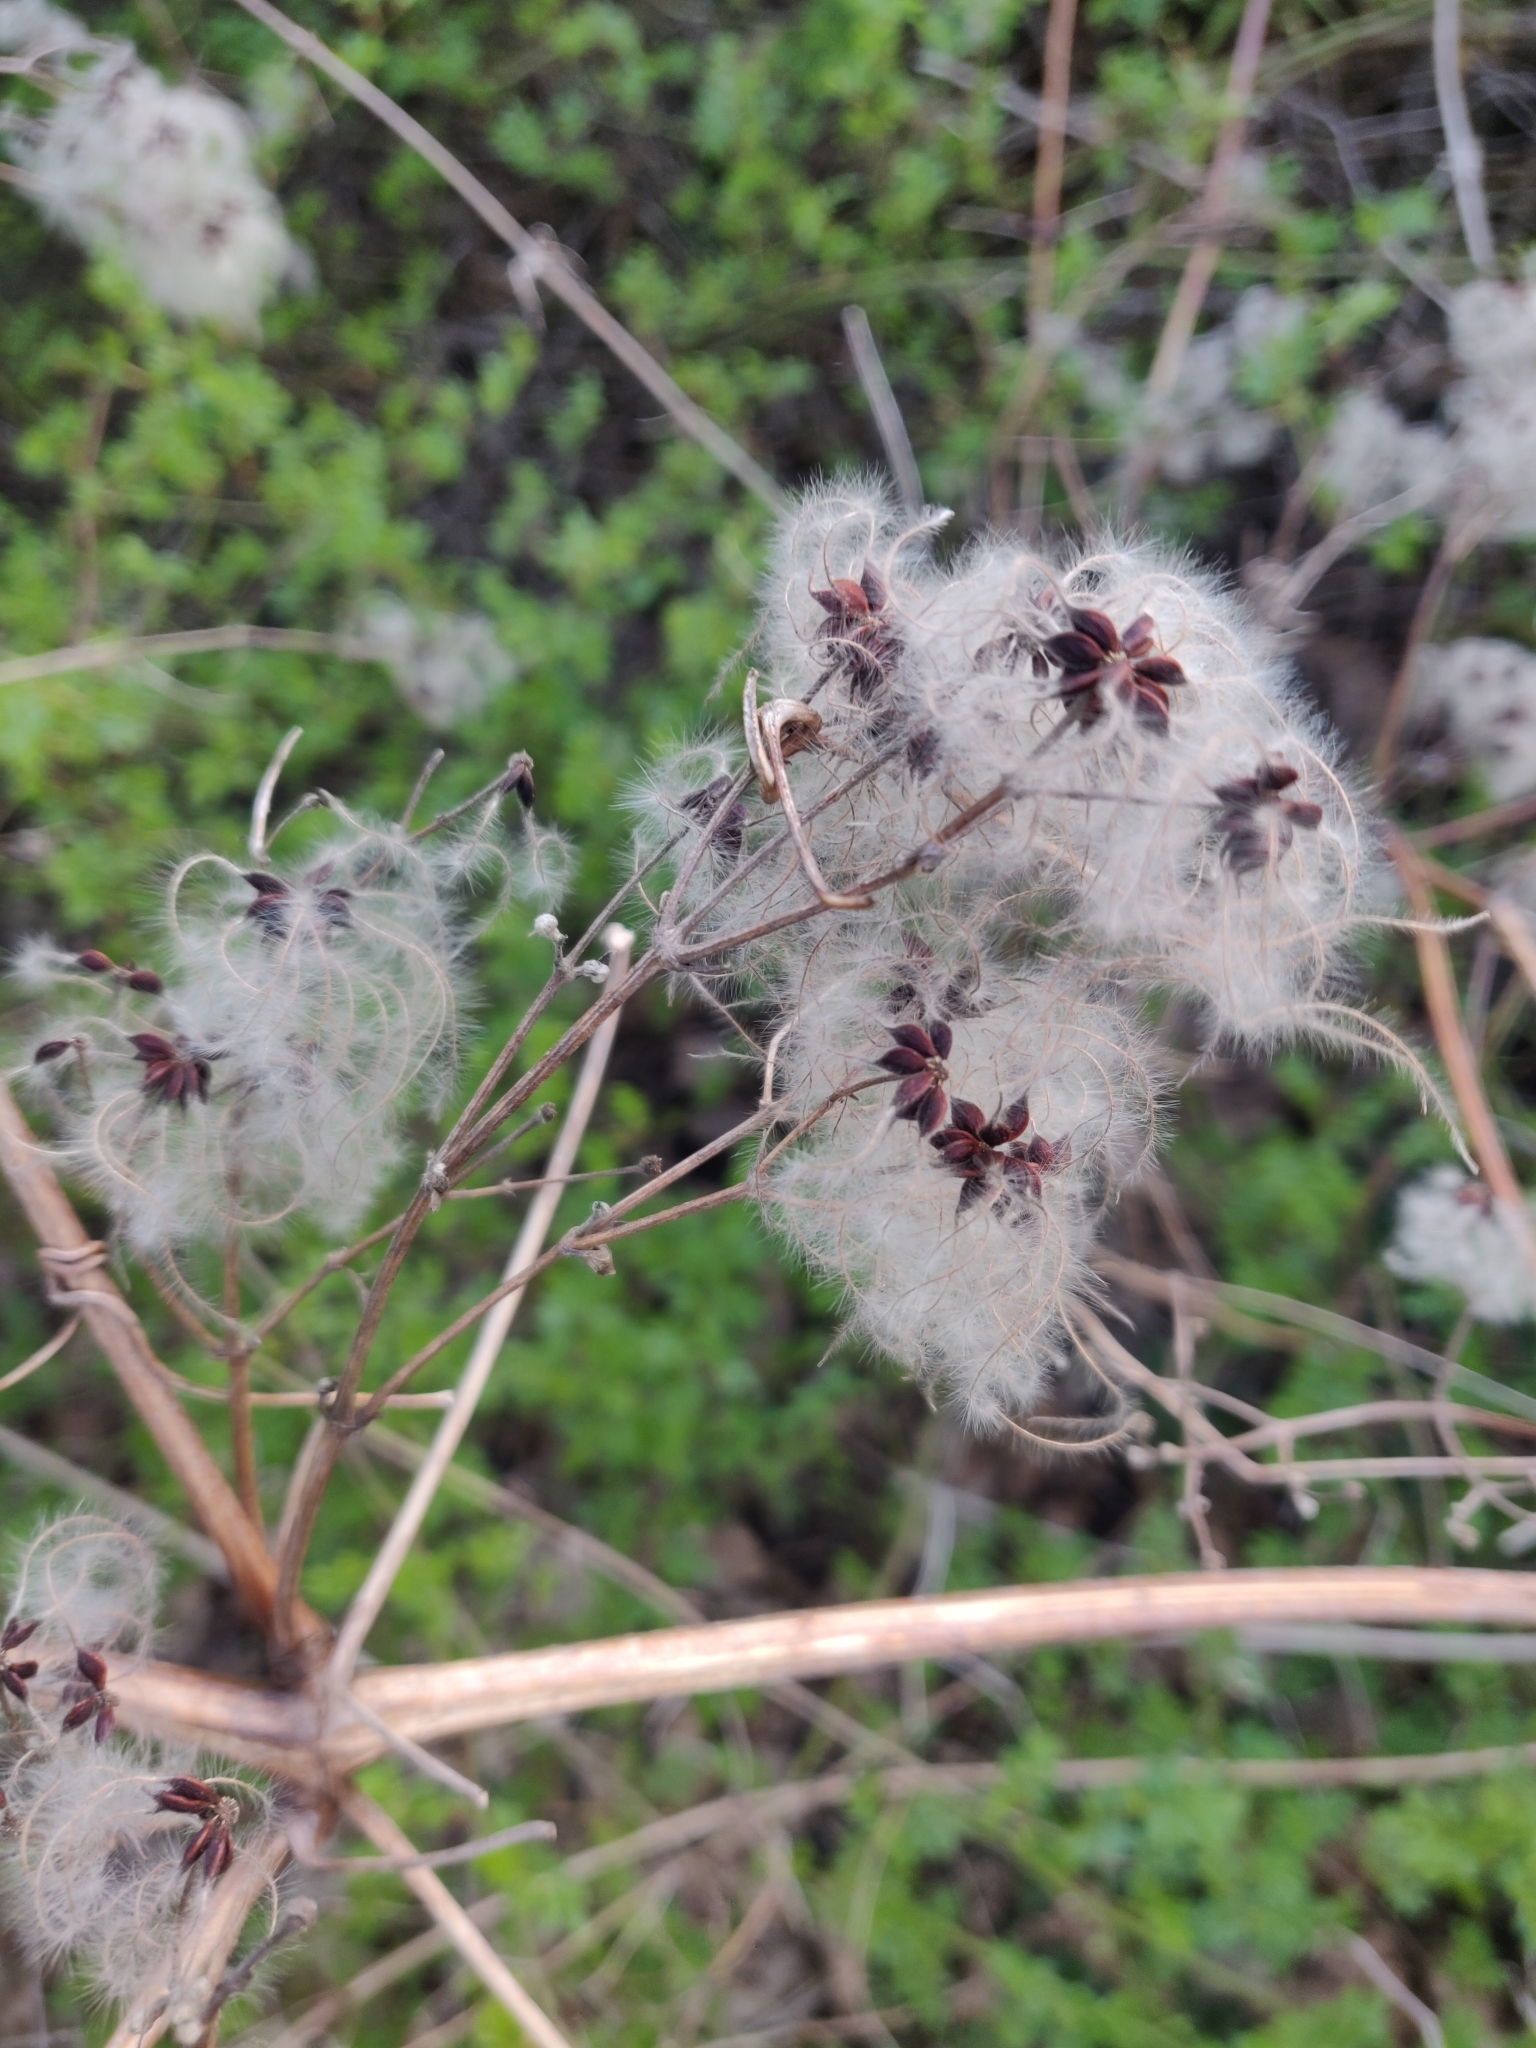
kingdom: Plantae
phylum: Tracheophyta
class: Magnoliopsida
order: Ranunculales
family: Ranunculaceae
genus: Clematis
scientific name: Clematis vitalba
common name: Evergreen clematis
